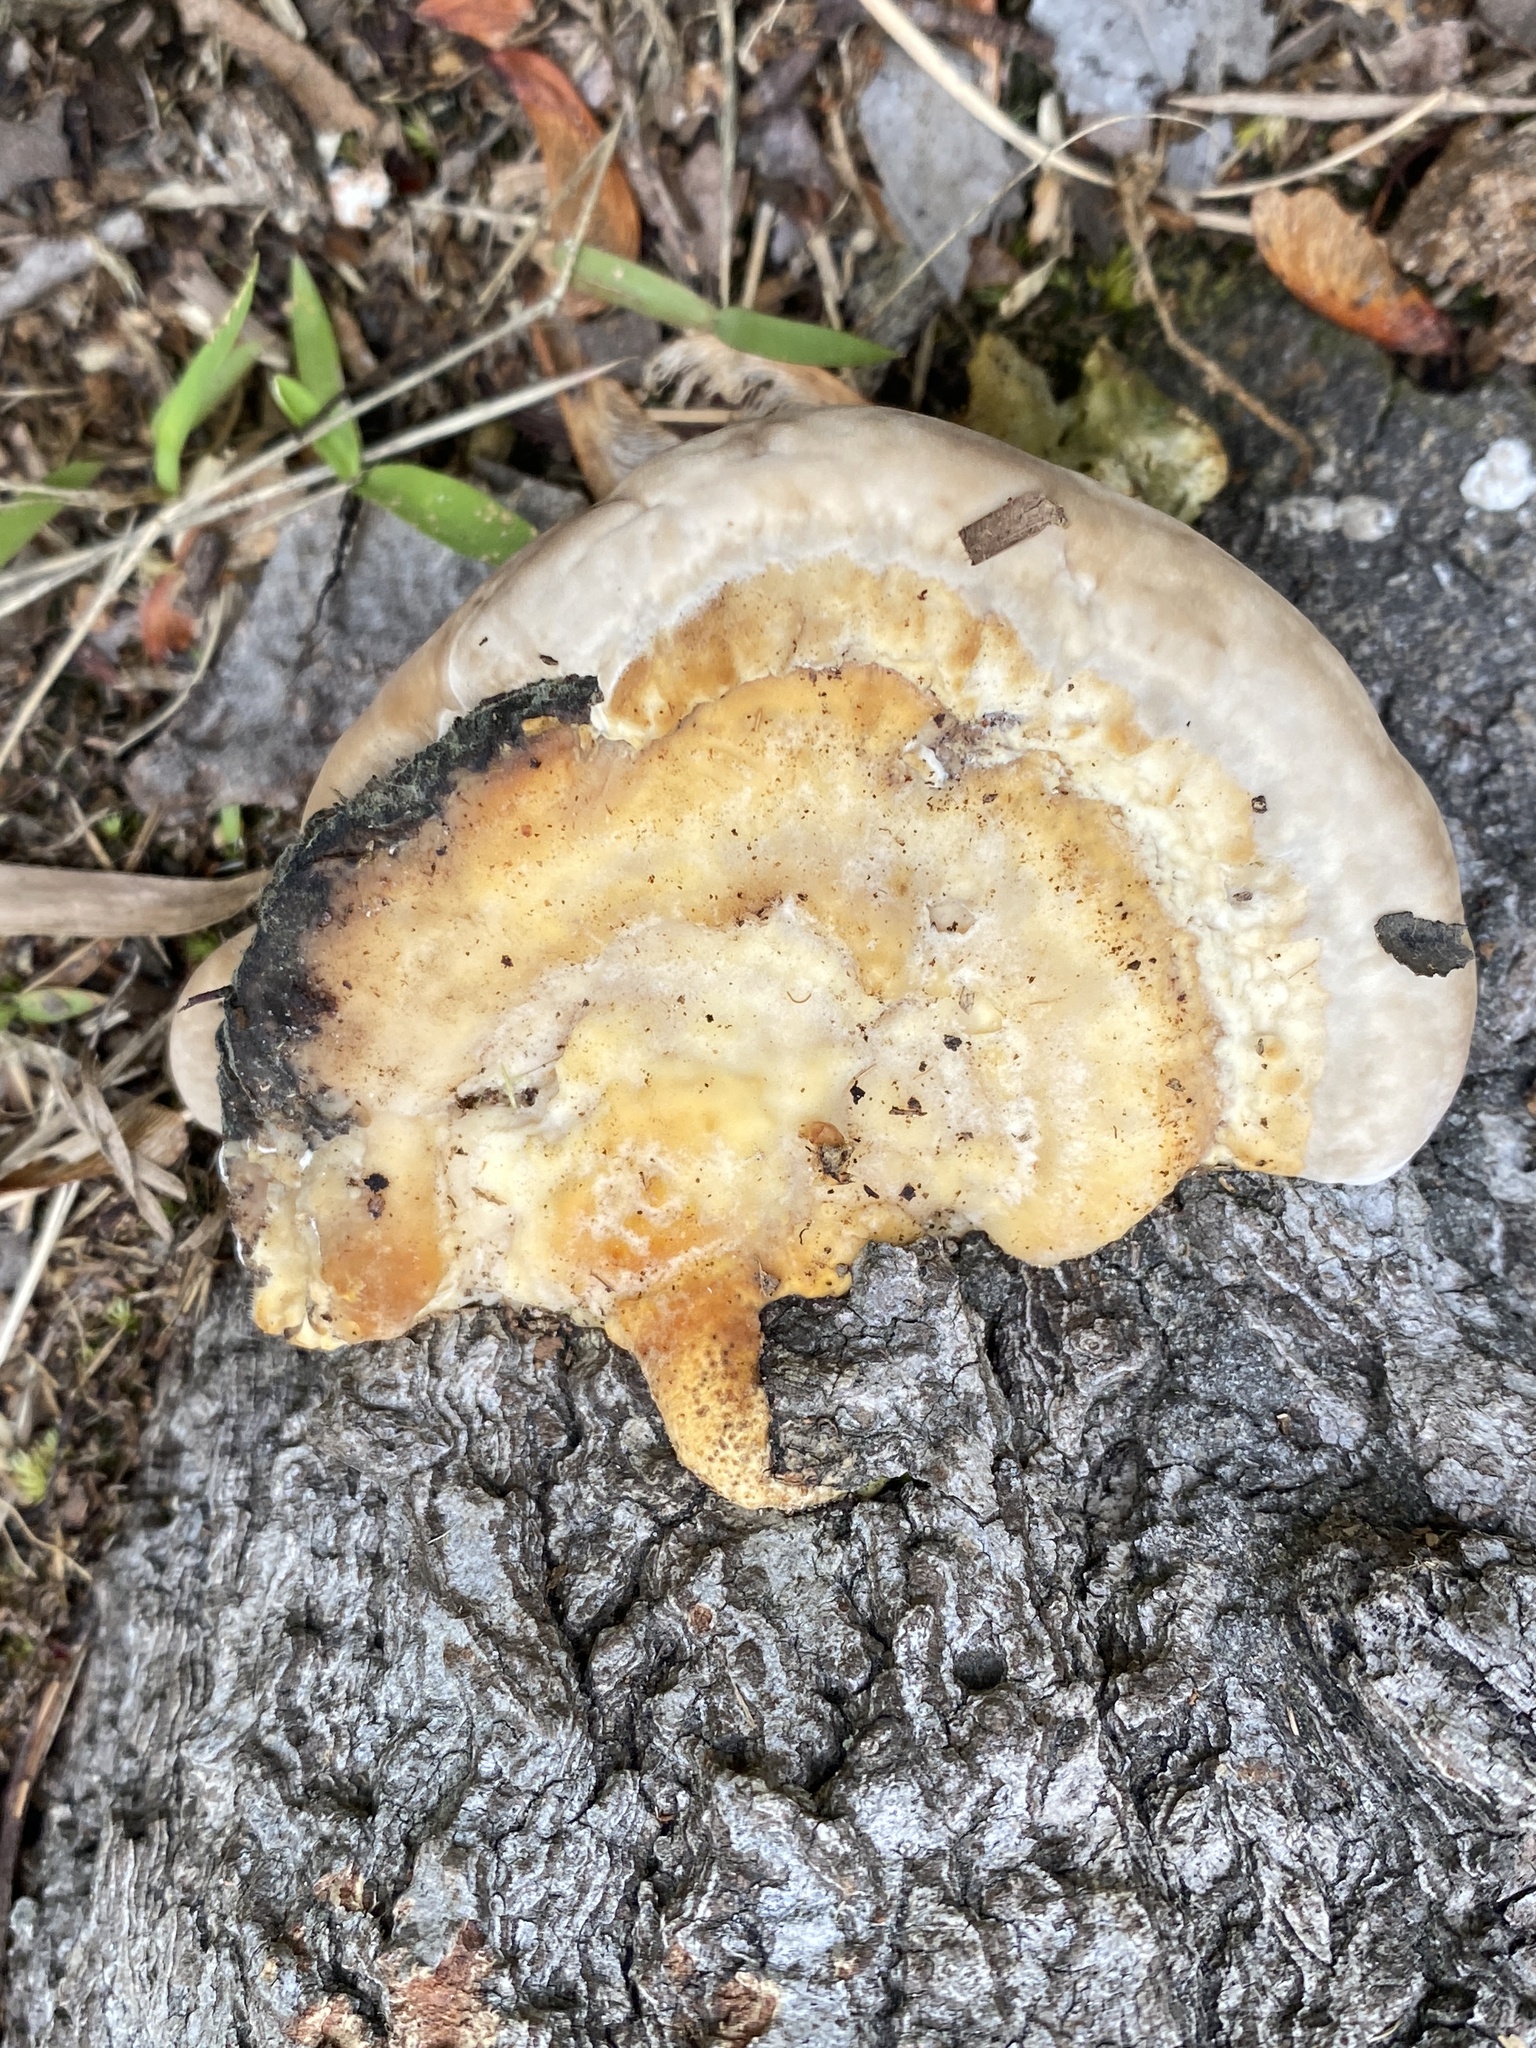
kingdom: Fungi
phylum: Basidiomycota
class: Agaricomycetes
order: Polyporales
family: Polyporaceae
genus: Trametes
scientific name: Trametes lactinea
